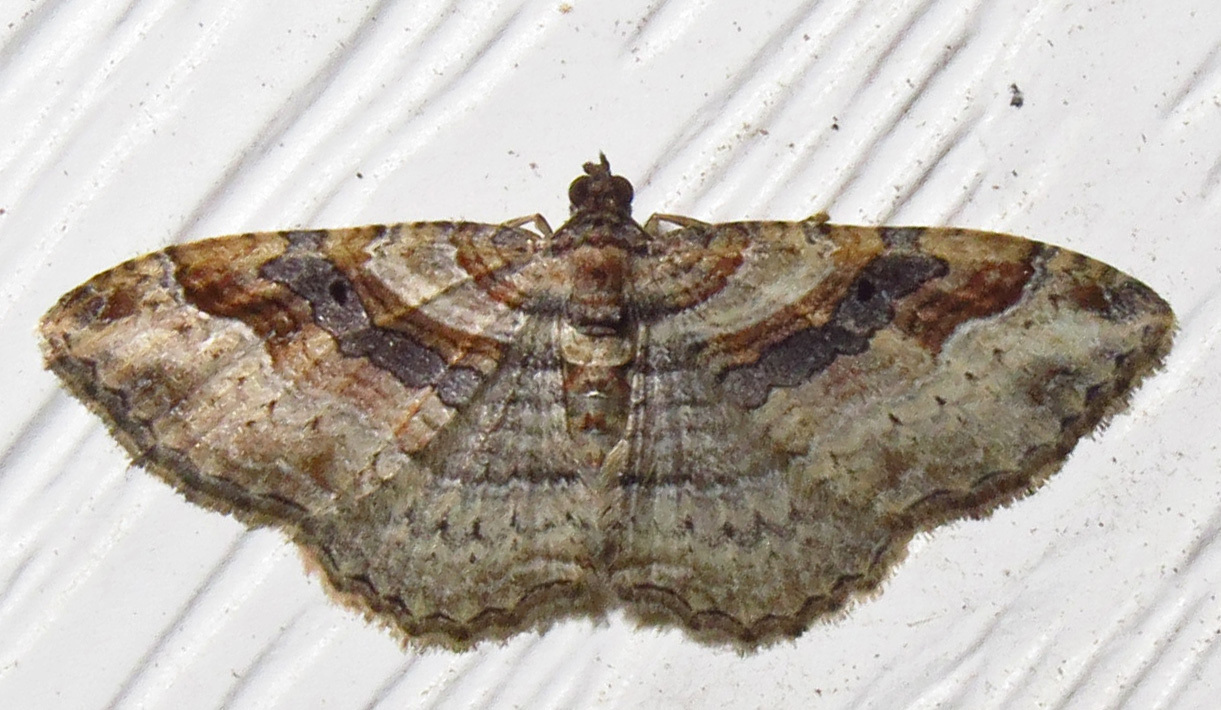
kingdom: Animalia
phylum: Arthropoda
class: Insecta
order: Lepidoptera
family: Geometridae
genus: Costaconvexa
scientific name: Costaconvexa centrostrigaria
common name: Bent-line carpet
